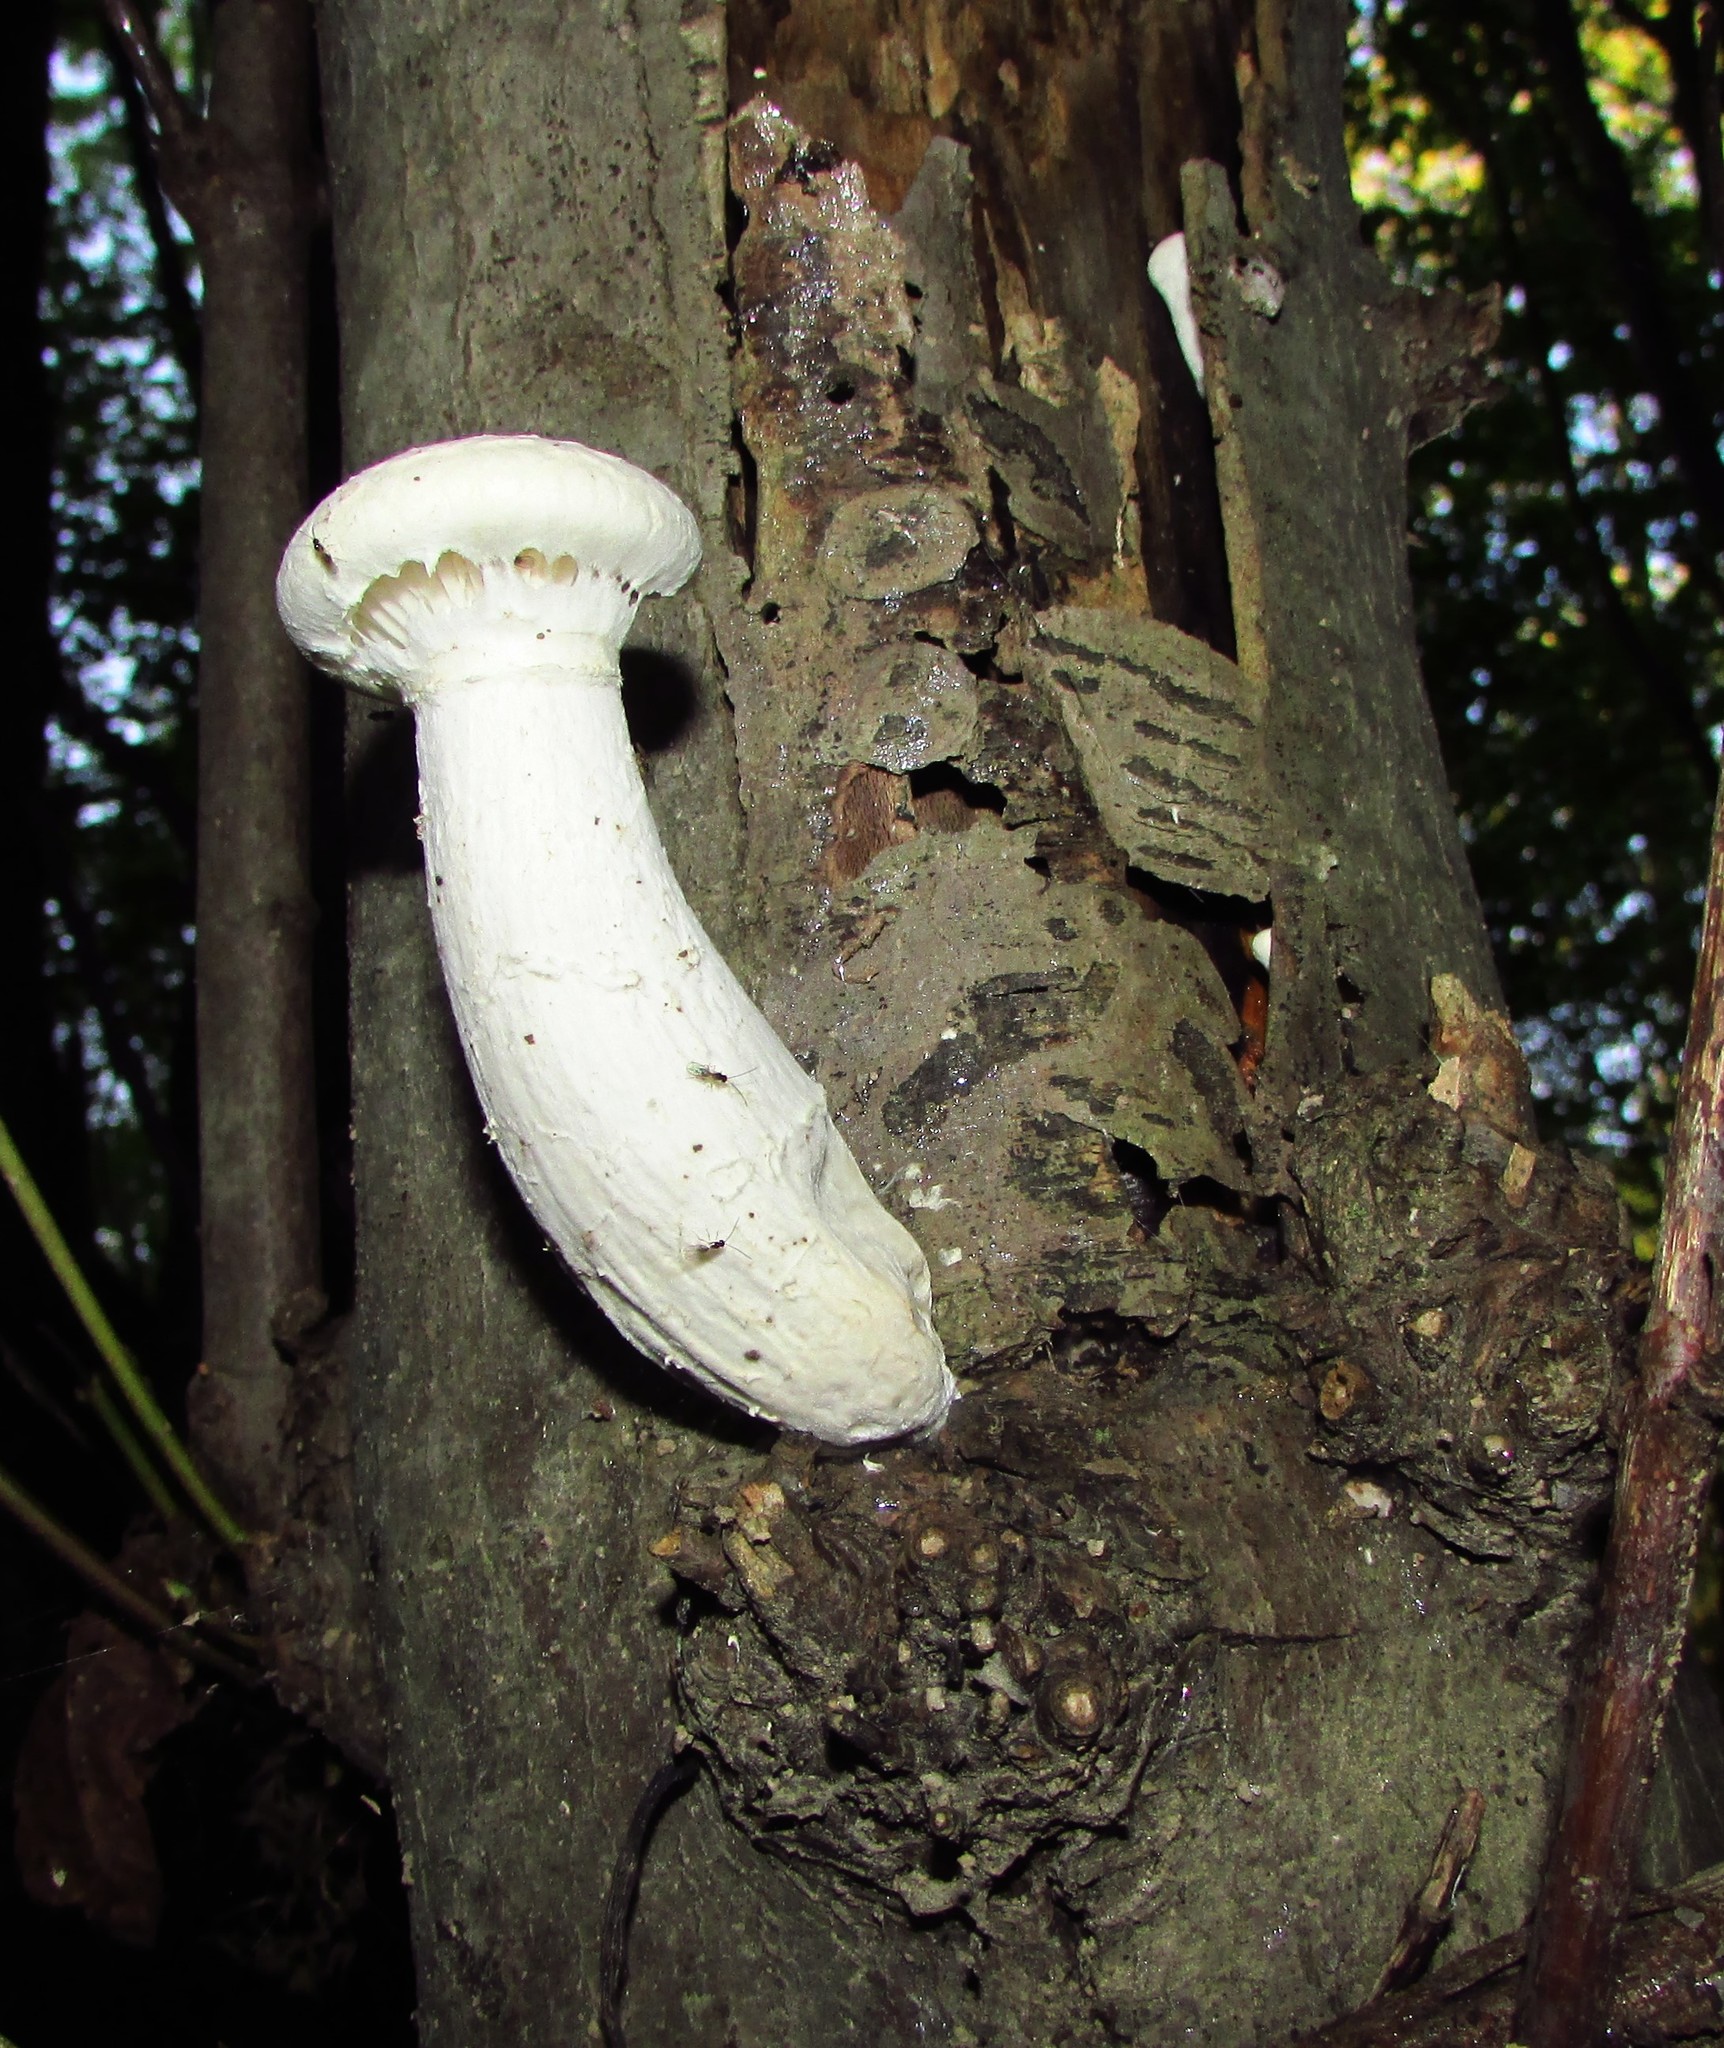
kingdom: Fungi
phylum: Basidiomycota
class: Agaricomycetes
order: Polyporales
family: Polyporaceae
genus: Lentinus
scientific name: Lentinus levis
